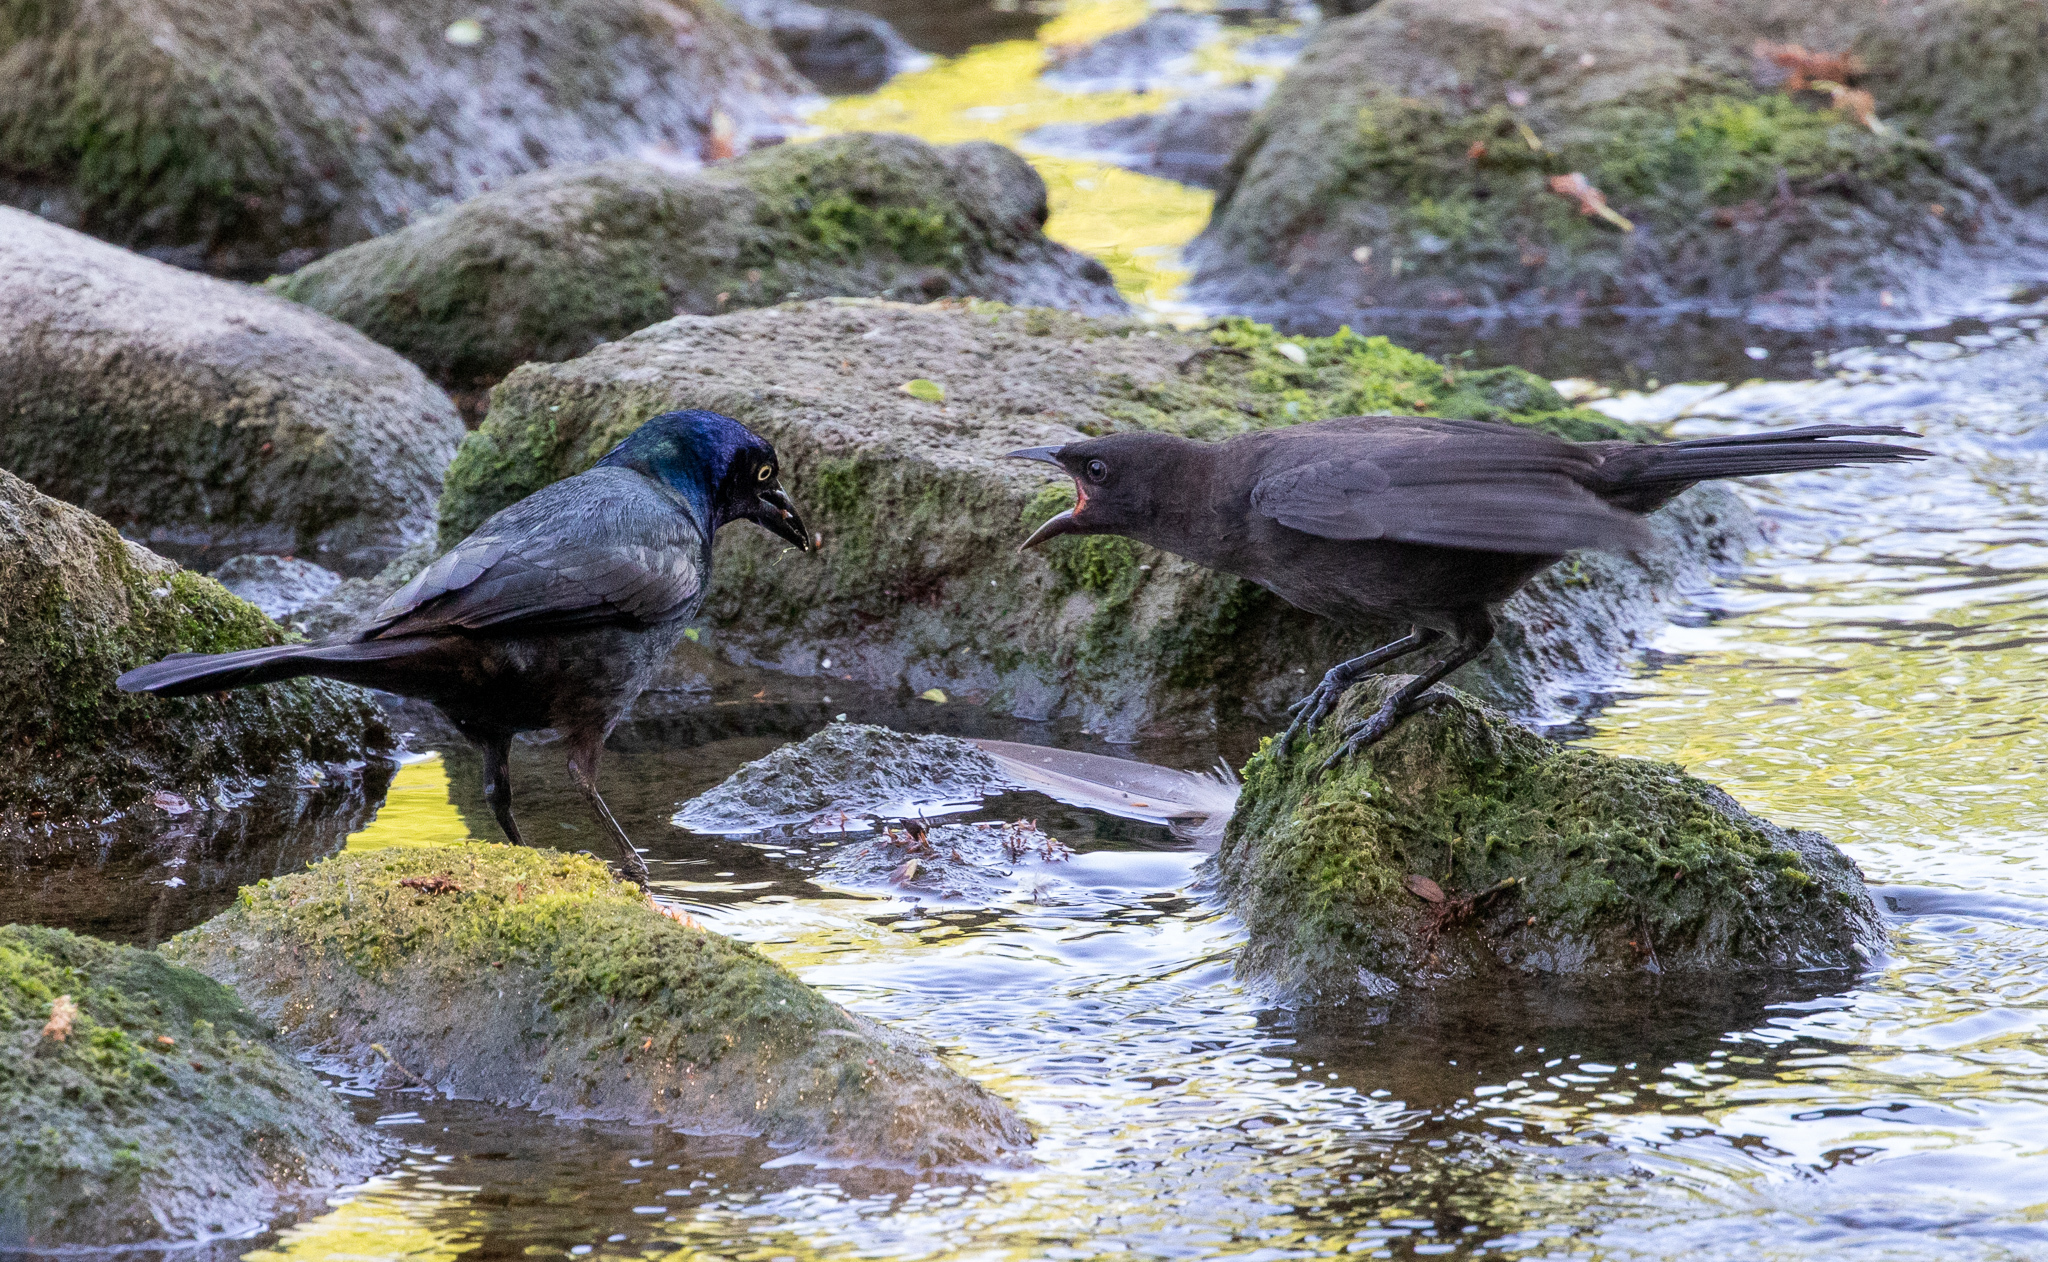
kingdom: Animalia
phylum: Chordata
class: Aves
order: Passeriformes
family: Icteridae
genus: Quiscalus
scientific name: Quiscalus quiscula
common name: Common grackle
